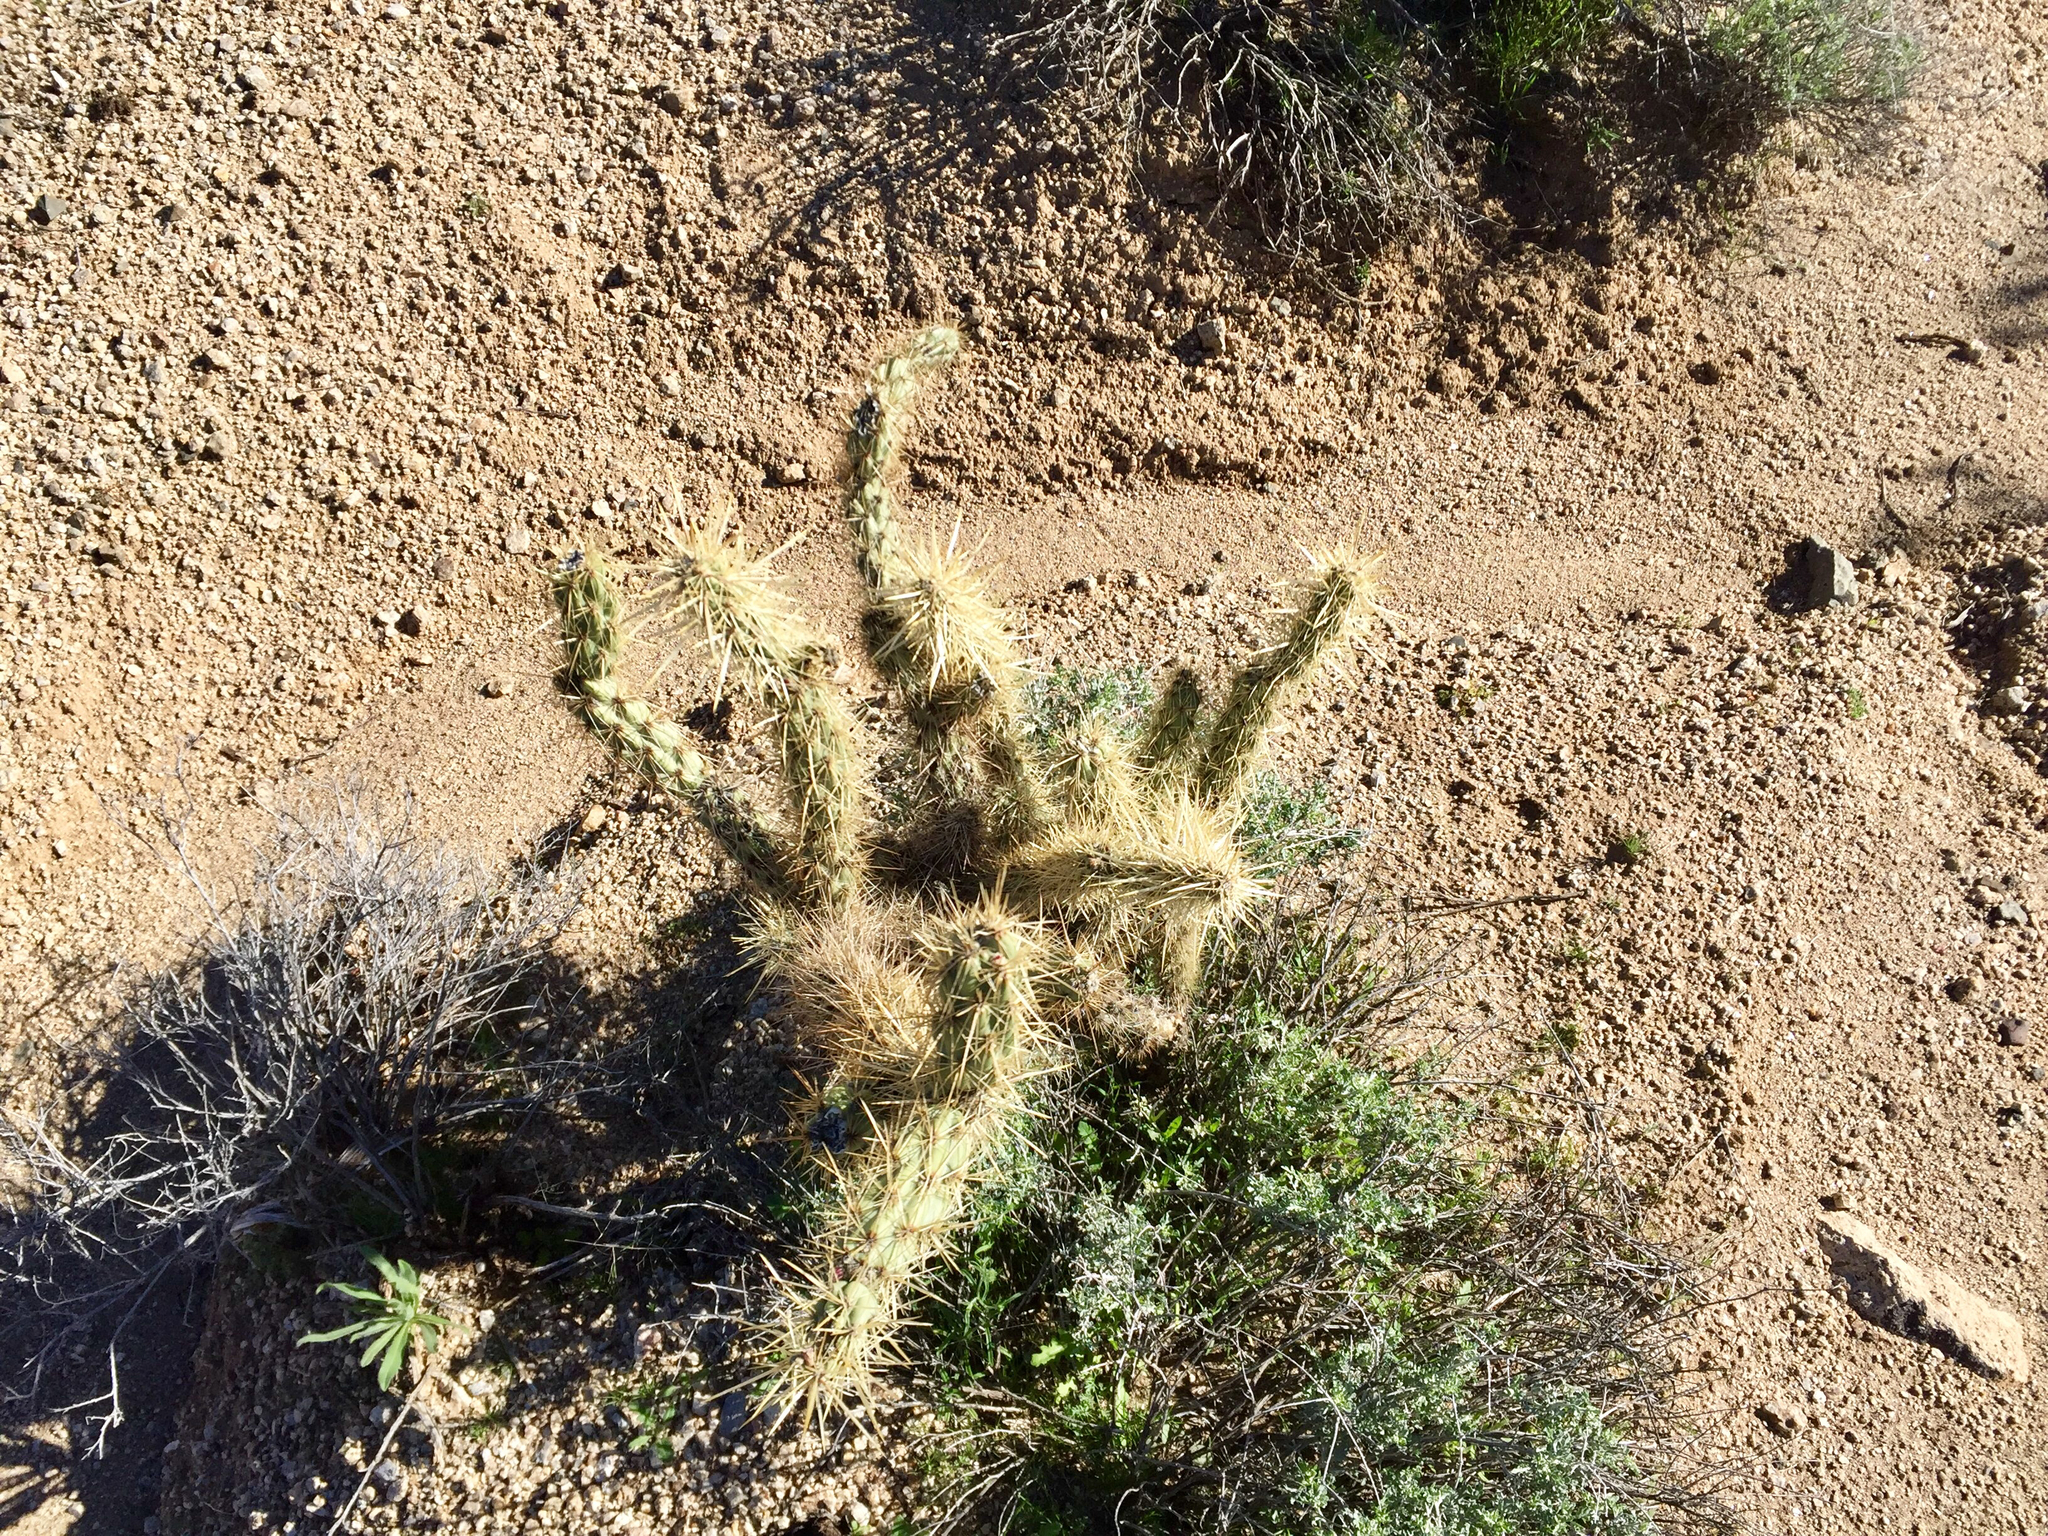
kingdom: Plantae
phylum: Tracheophyta
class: Magnoliopsida
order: Caryophyllales
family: Cactaceae
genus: Cylindropuntia
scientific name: Cylindropuntia acanthocarpa
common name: Buckhorn cholla
